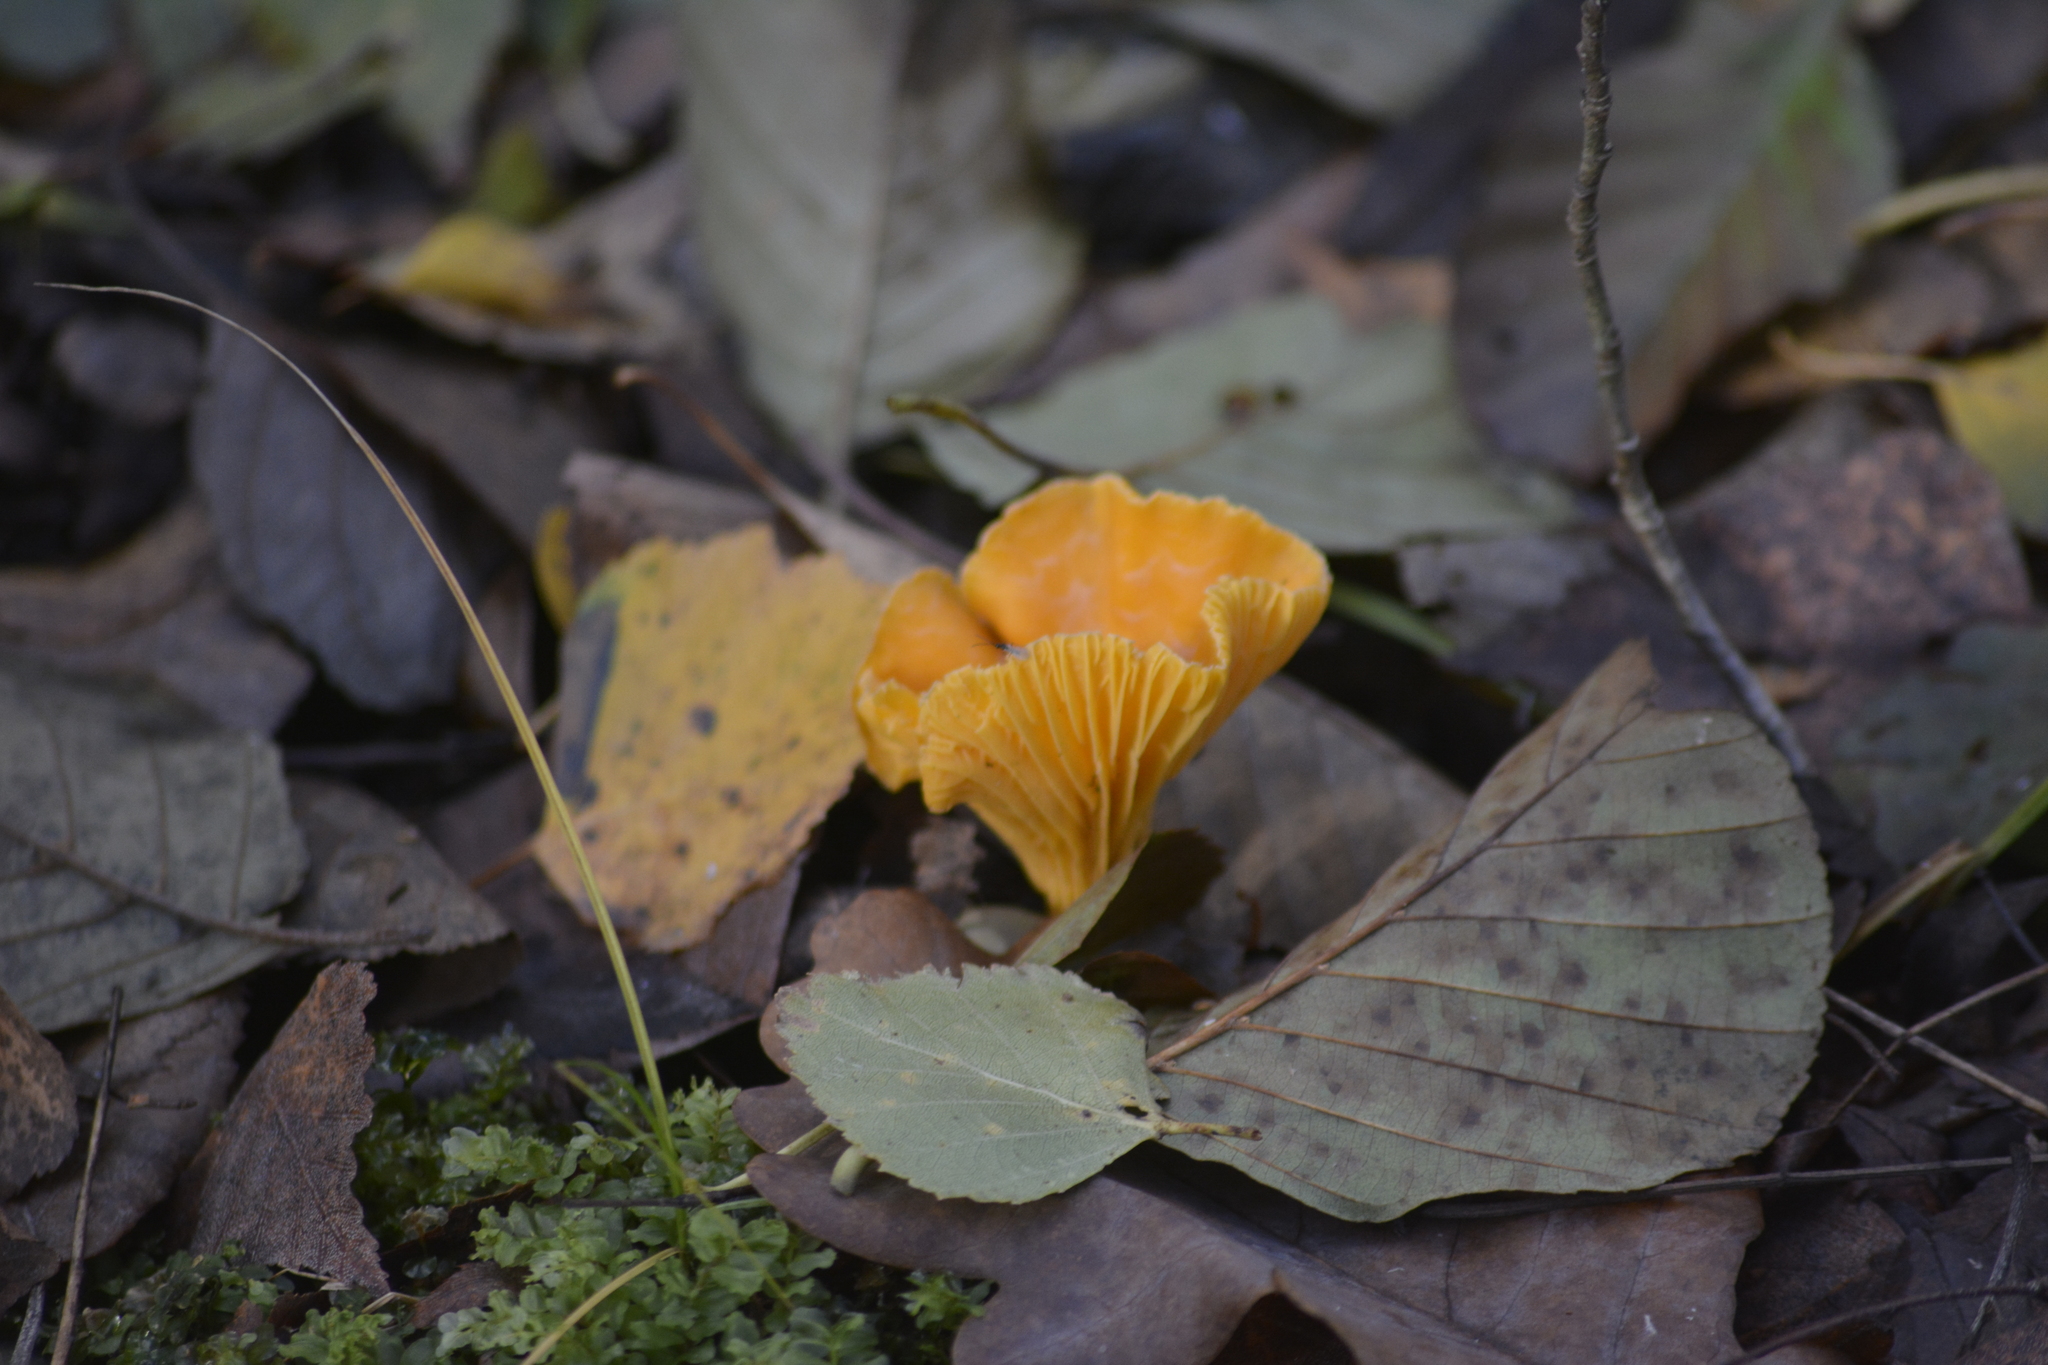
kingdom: Fungi
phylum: Basidiomycota
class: Agaricomycetes
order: Cantharellales
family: Hydnaceae
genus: Cantharellus
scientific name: Cantharellus cibarius
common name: Chanterelle
